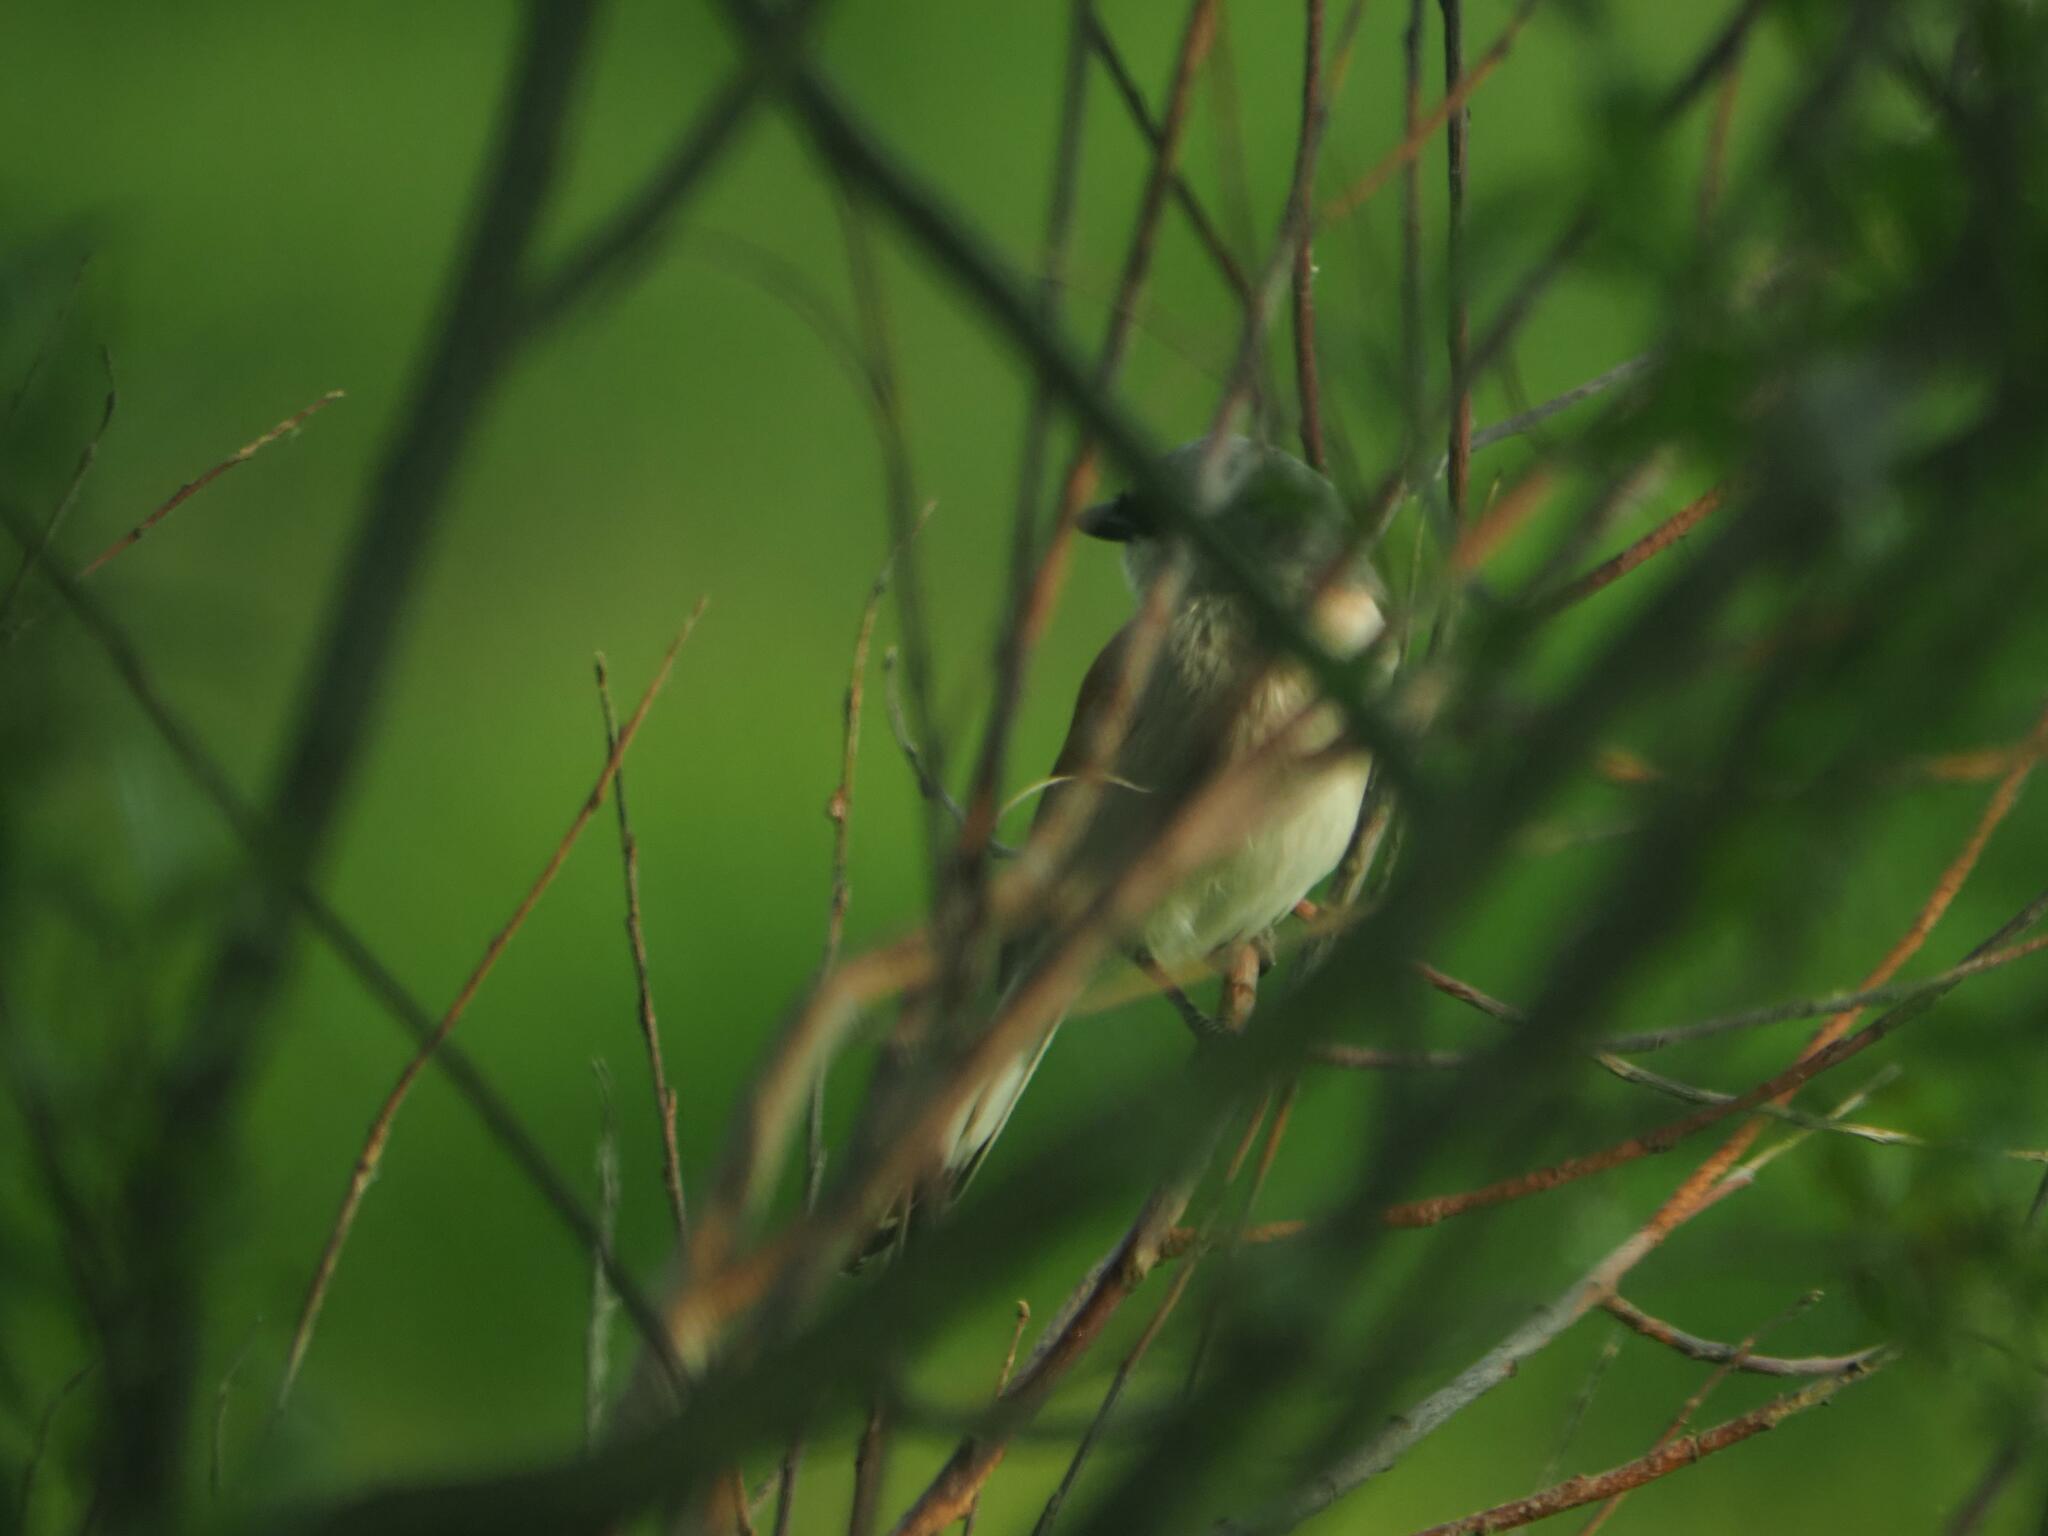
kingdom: Animalia
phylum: Chordata
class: Aves
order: Passeriformes
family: Laniidae
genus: Lanius
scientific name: Lanius collurio
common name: Red-backed shrike
